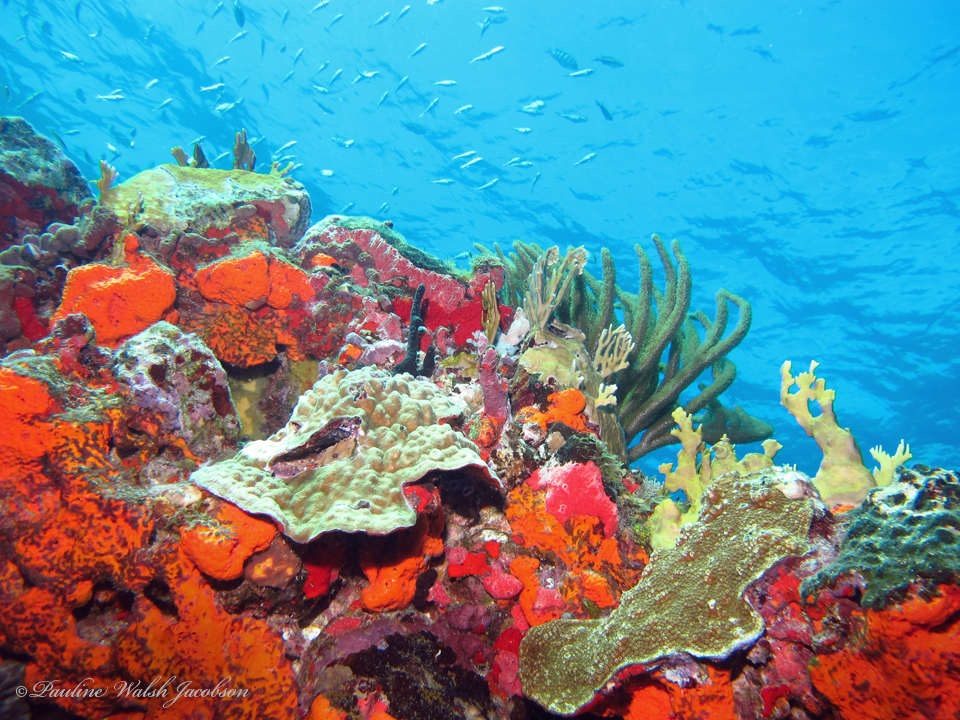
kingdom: Animalia
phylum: Porifera
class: Demospongiae
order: Agelasida
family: Agelasidae
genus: Agelas
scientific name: Agelas clathrodes
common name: Orange elephant ear sponge
